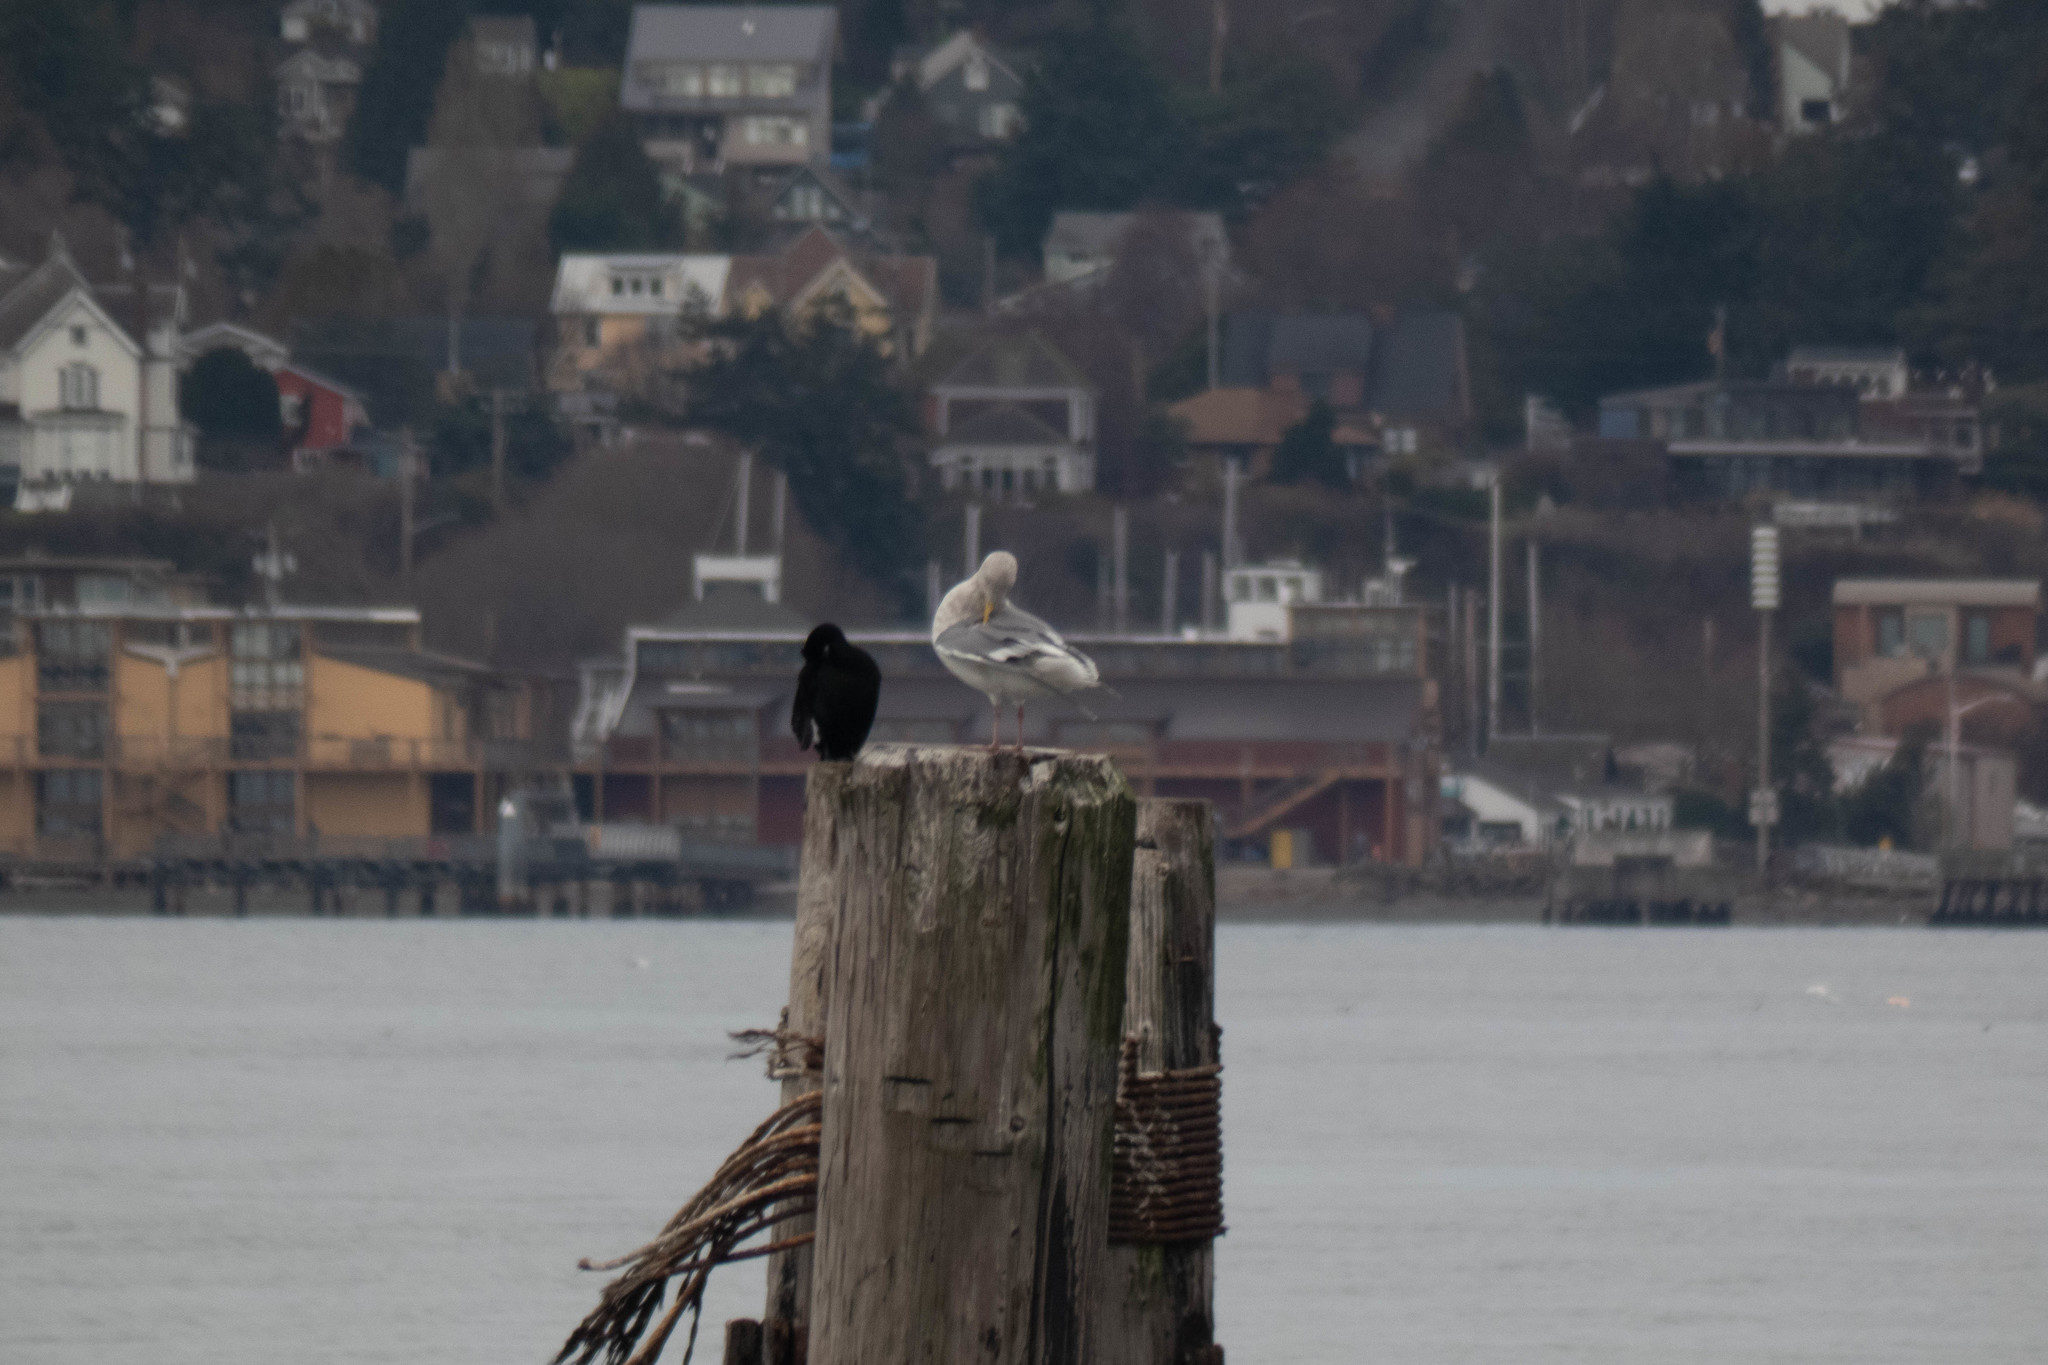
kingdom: Animalia
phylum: Chordata
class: Aves
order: Charadriiformes
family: Laridae
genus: Larus
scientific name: Larus
